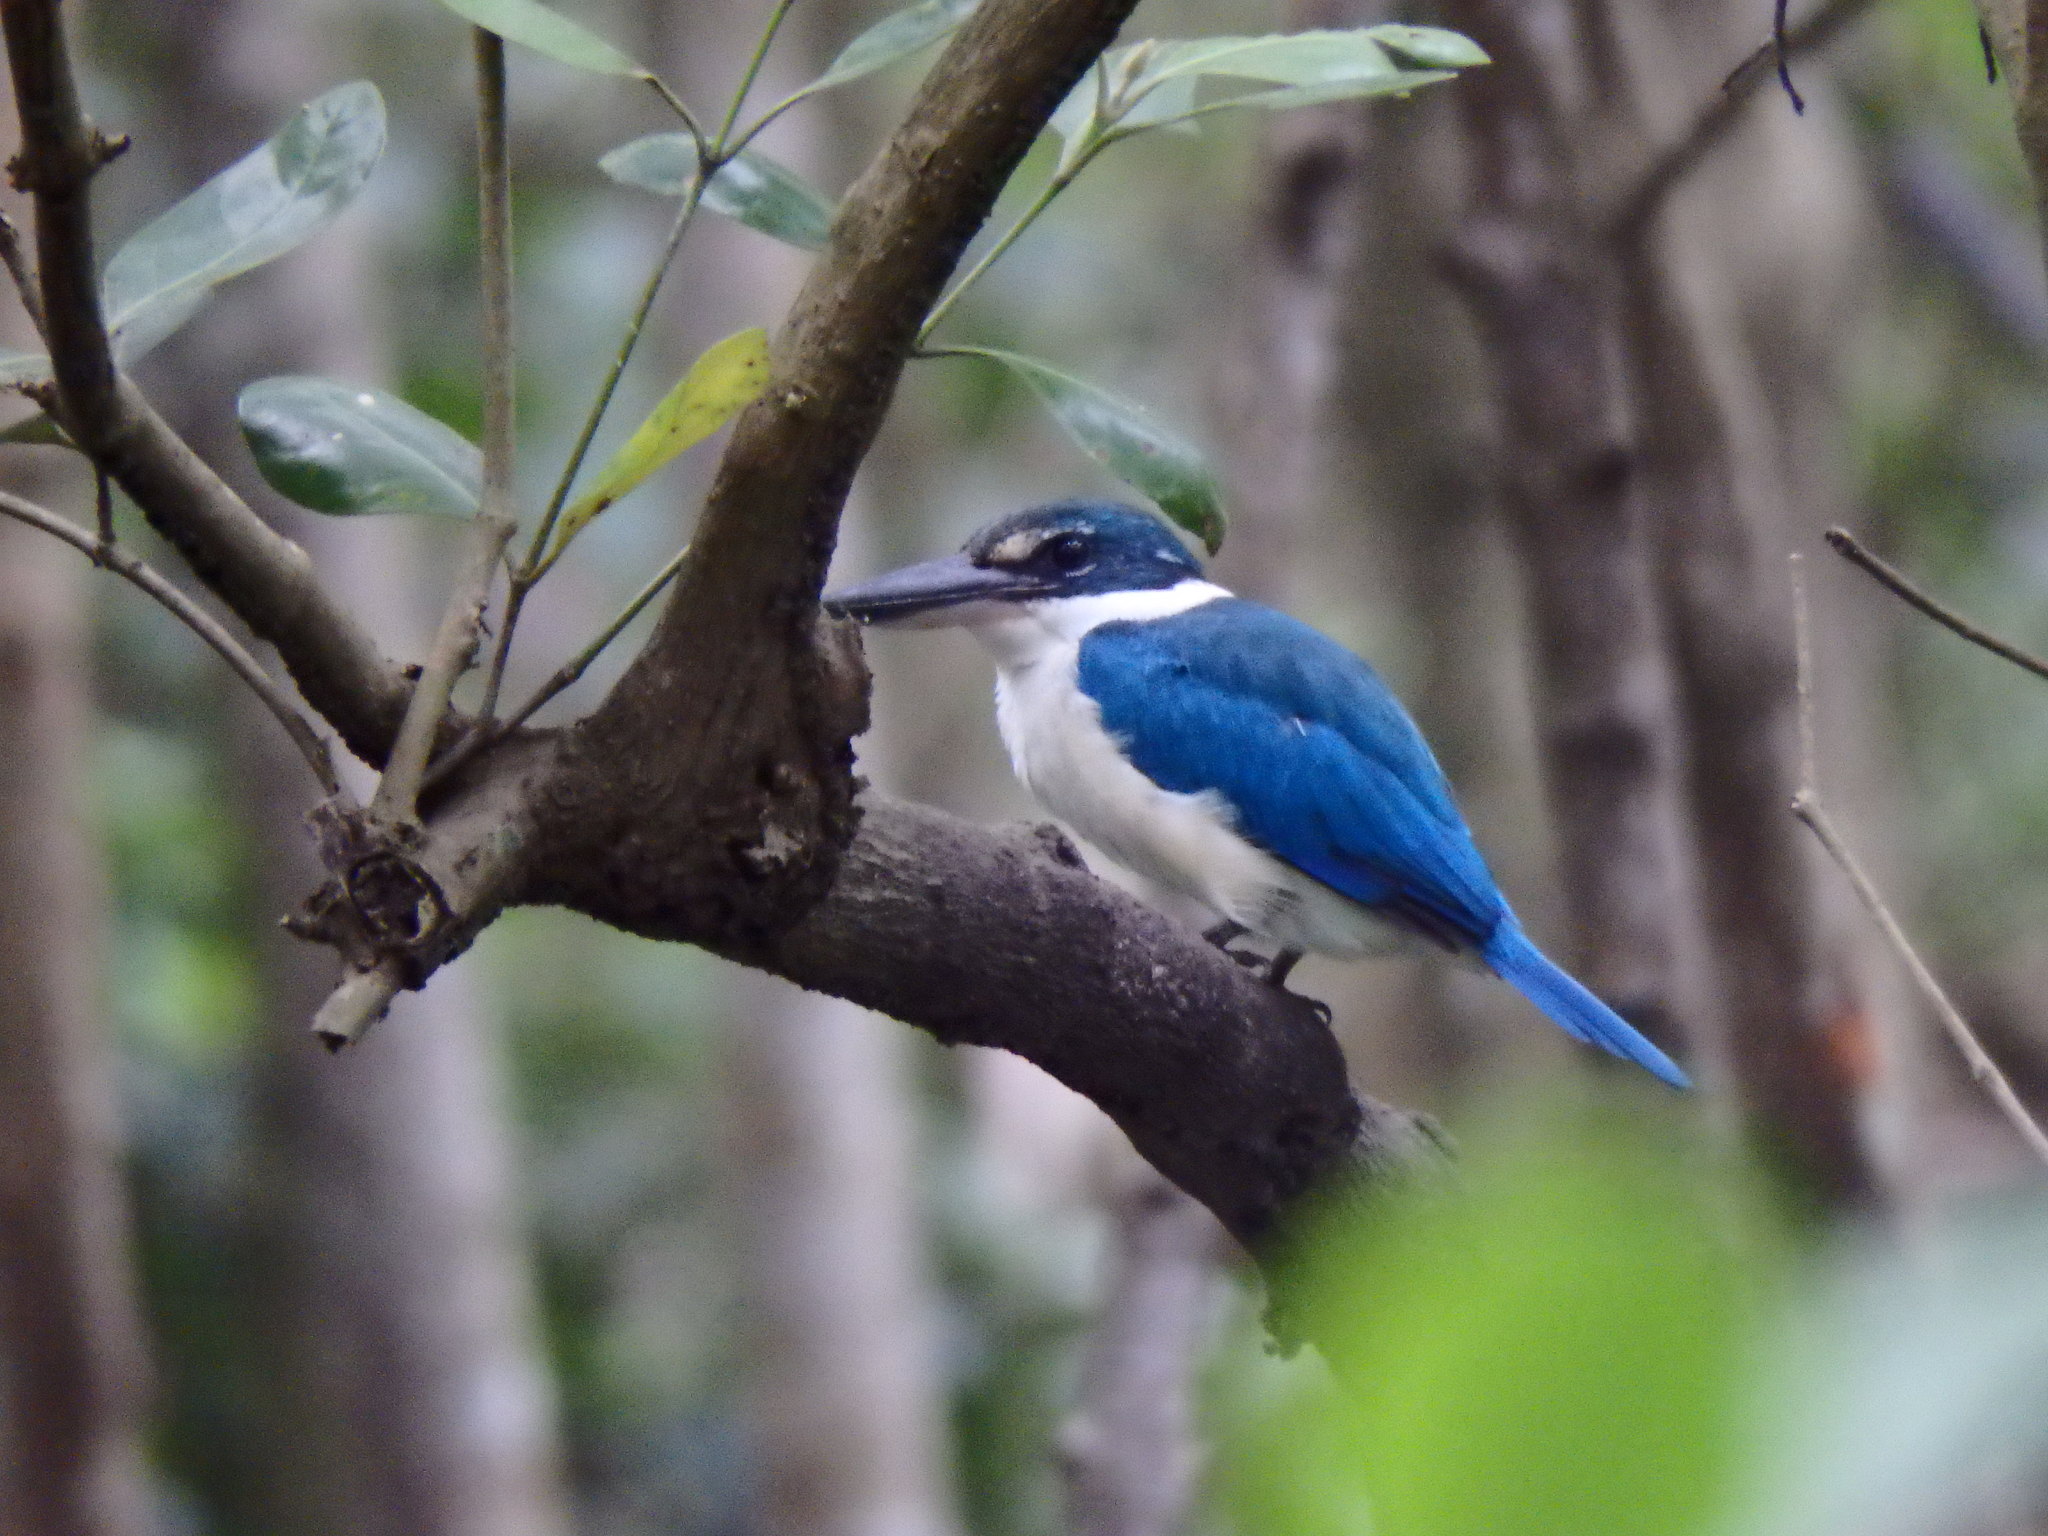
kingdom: Animalia
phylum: Chordata
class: Aves
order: Coraciiformes
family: Alcedinidae
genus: Todiramphus
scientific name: Todiramphus chloris
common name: Collared kingfisher
